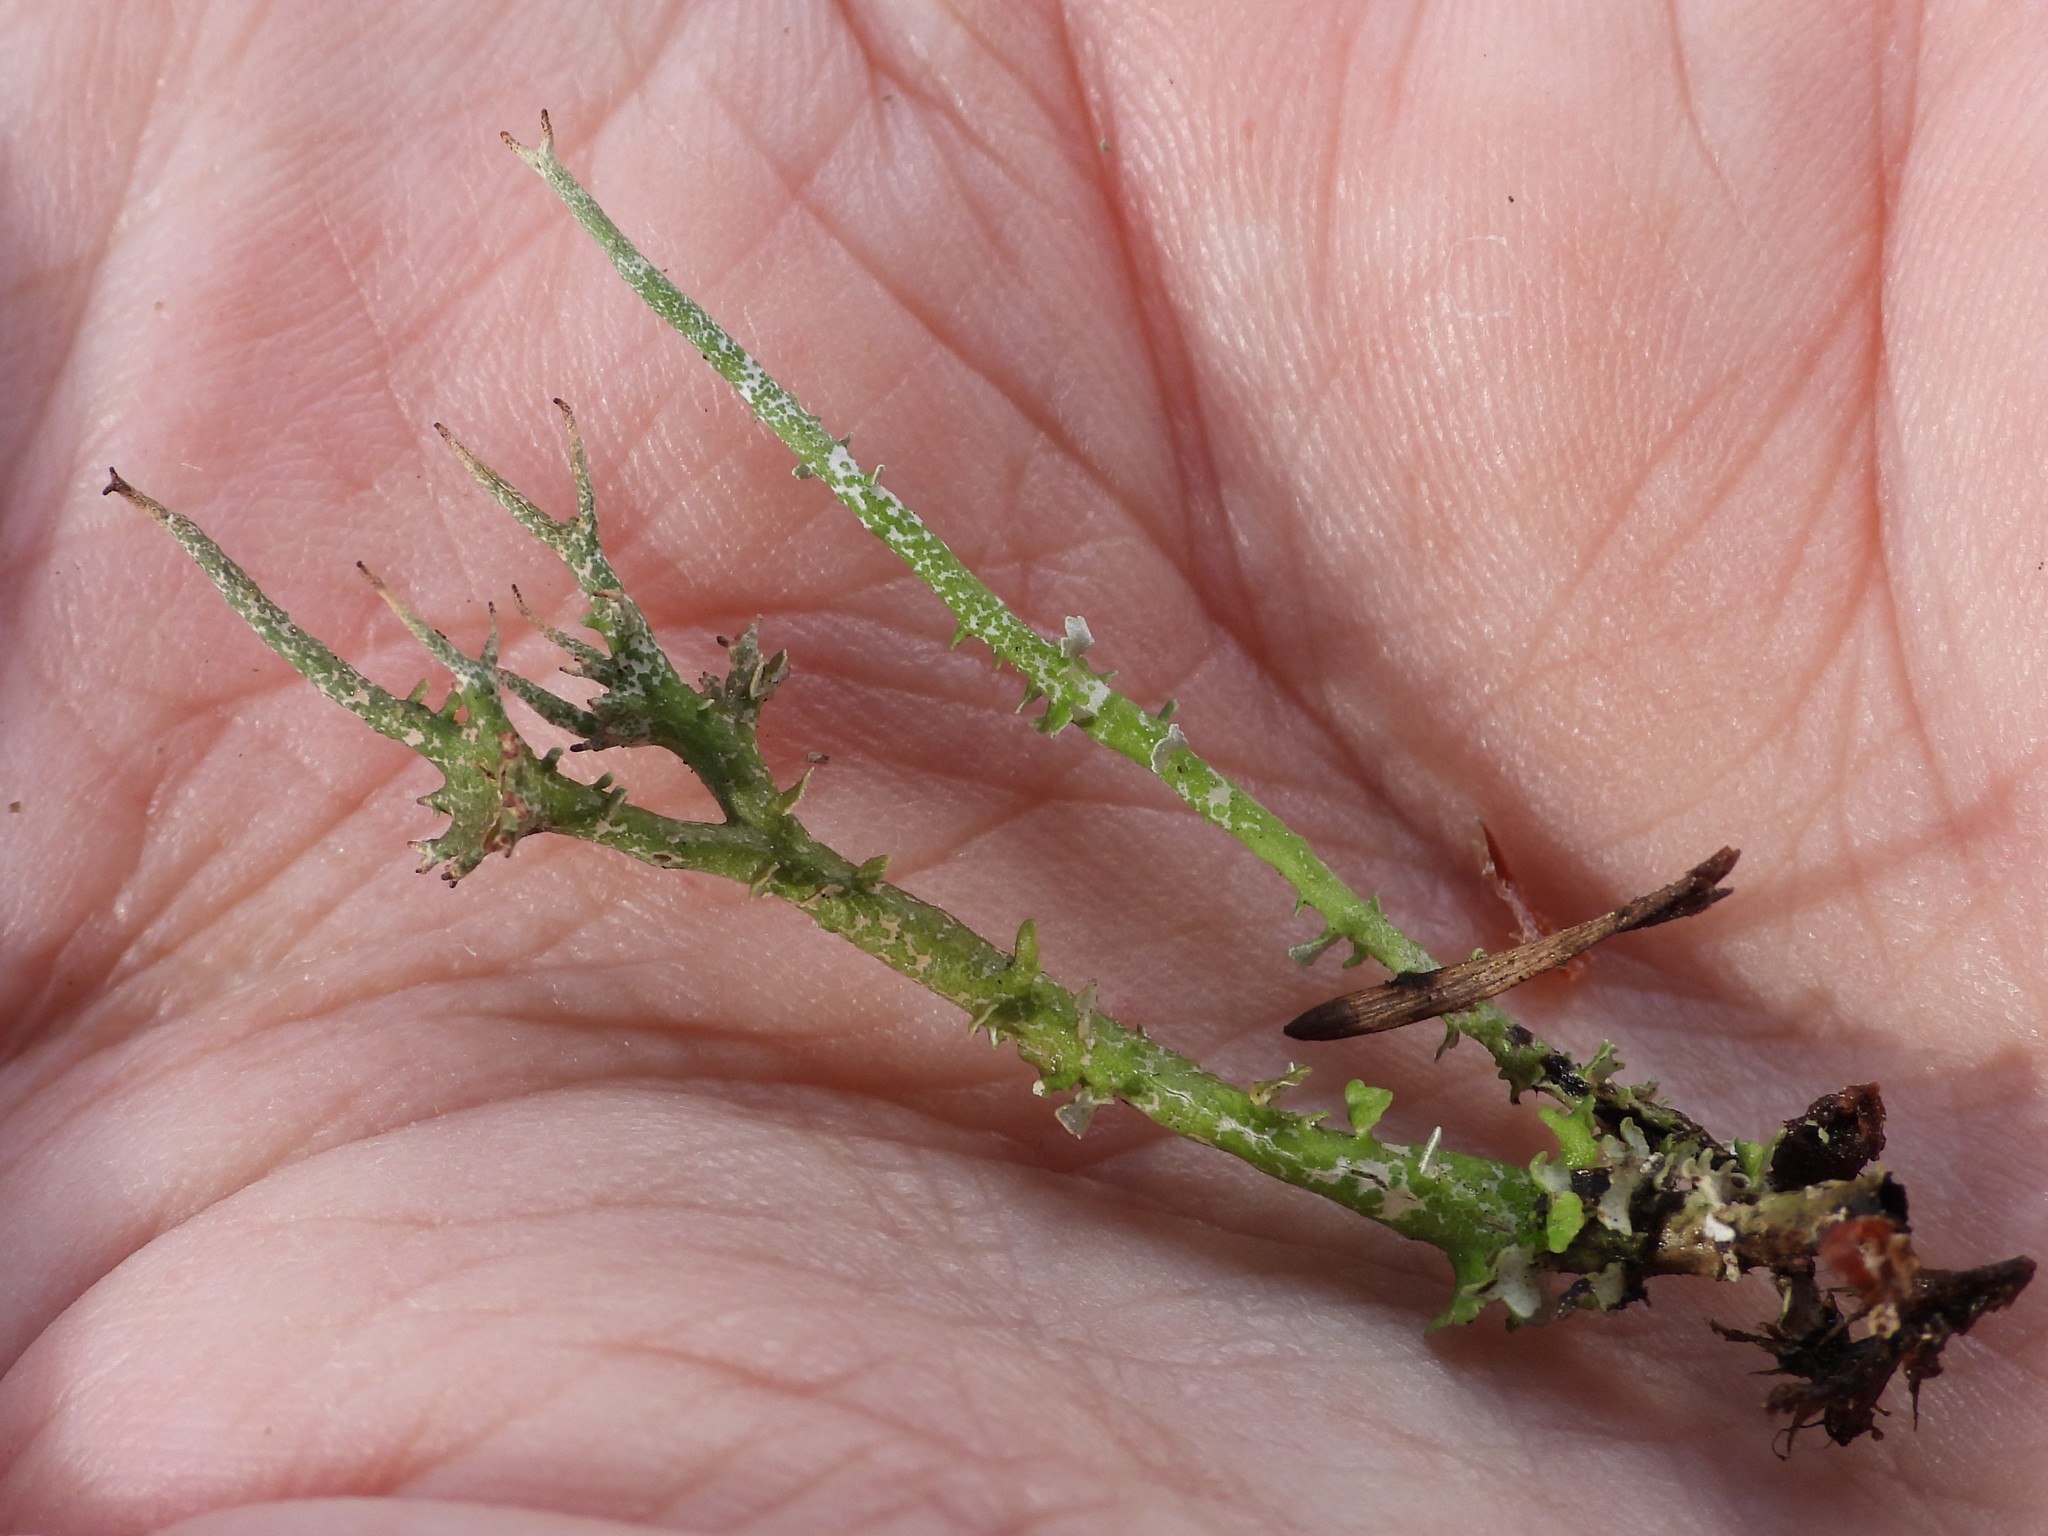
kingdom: Fungi
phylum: Ascomycota
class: Lecanoromycetes
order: Lecanorales
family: Cladoniaceae
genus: Cladonia
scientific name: Cladonia gracilis
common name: Smooth clad lichen
